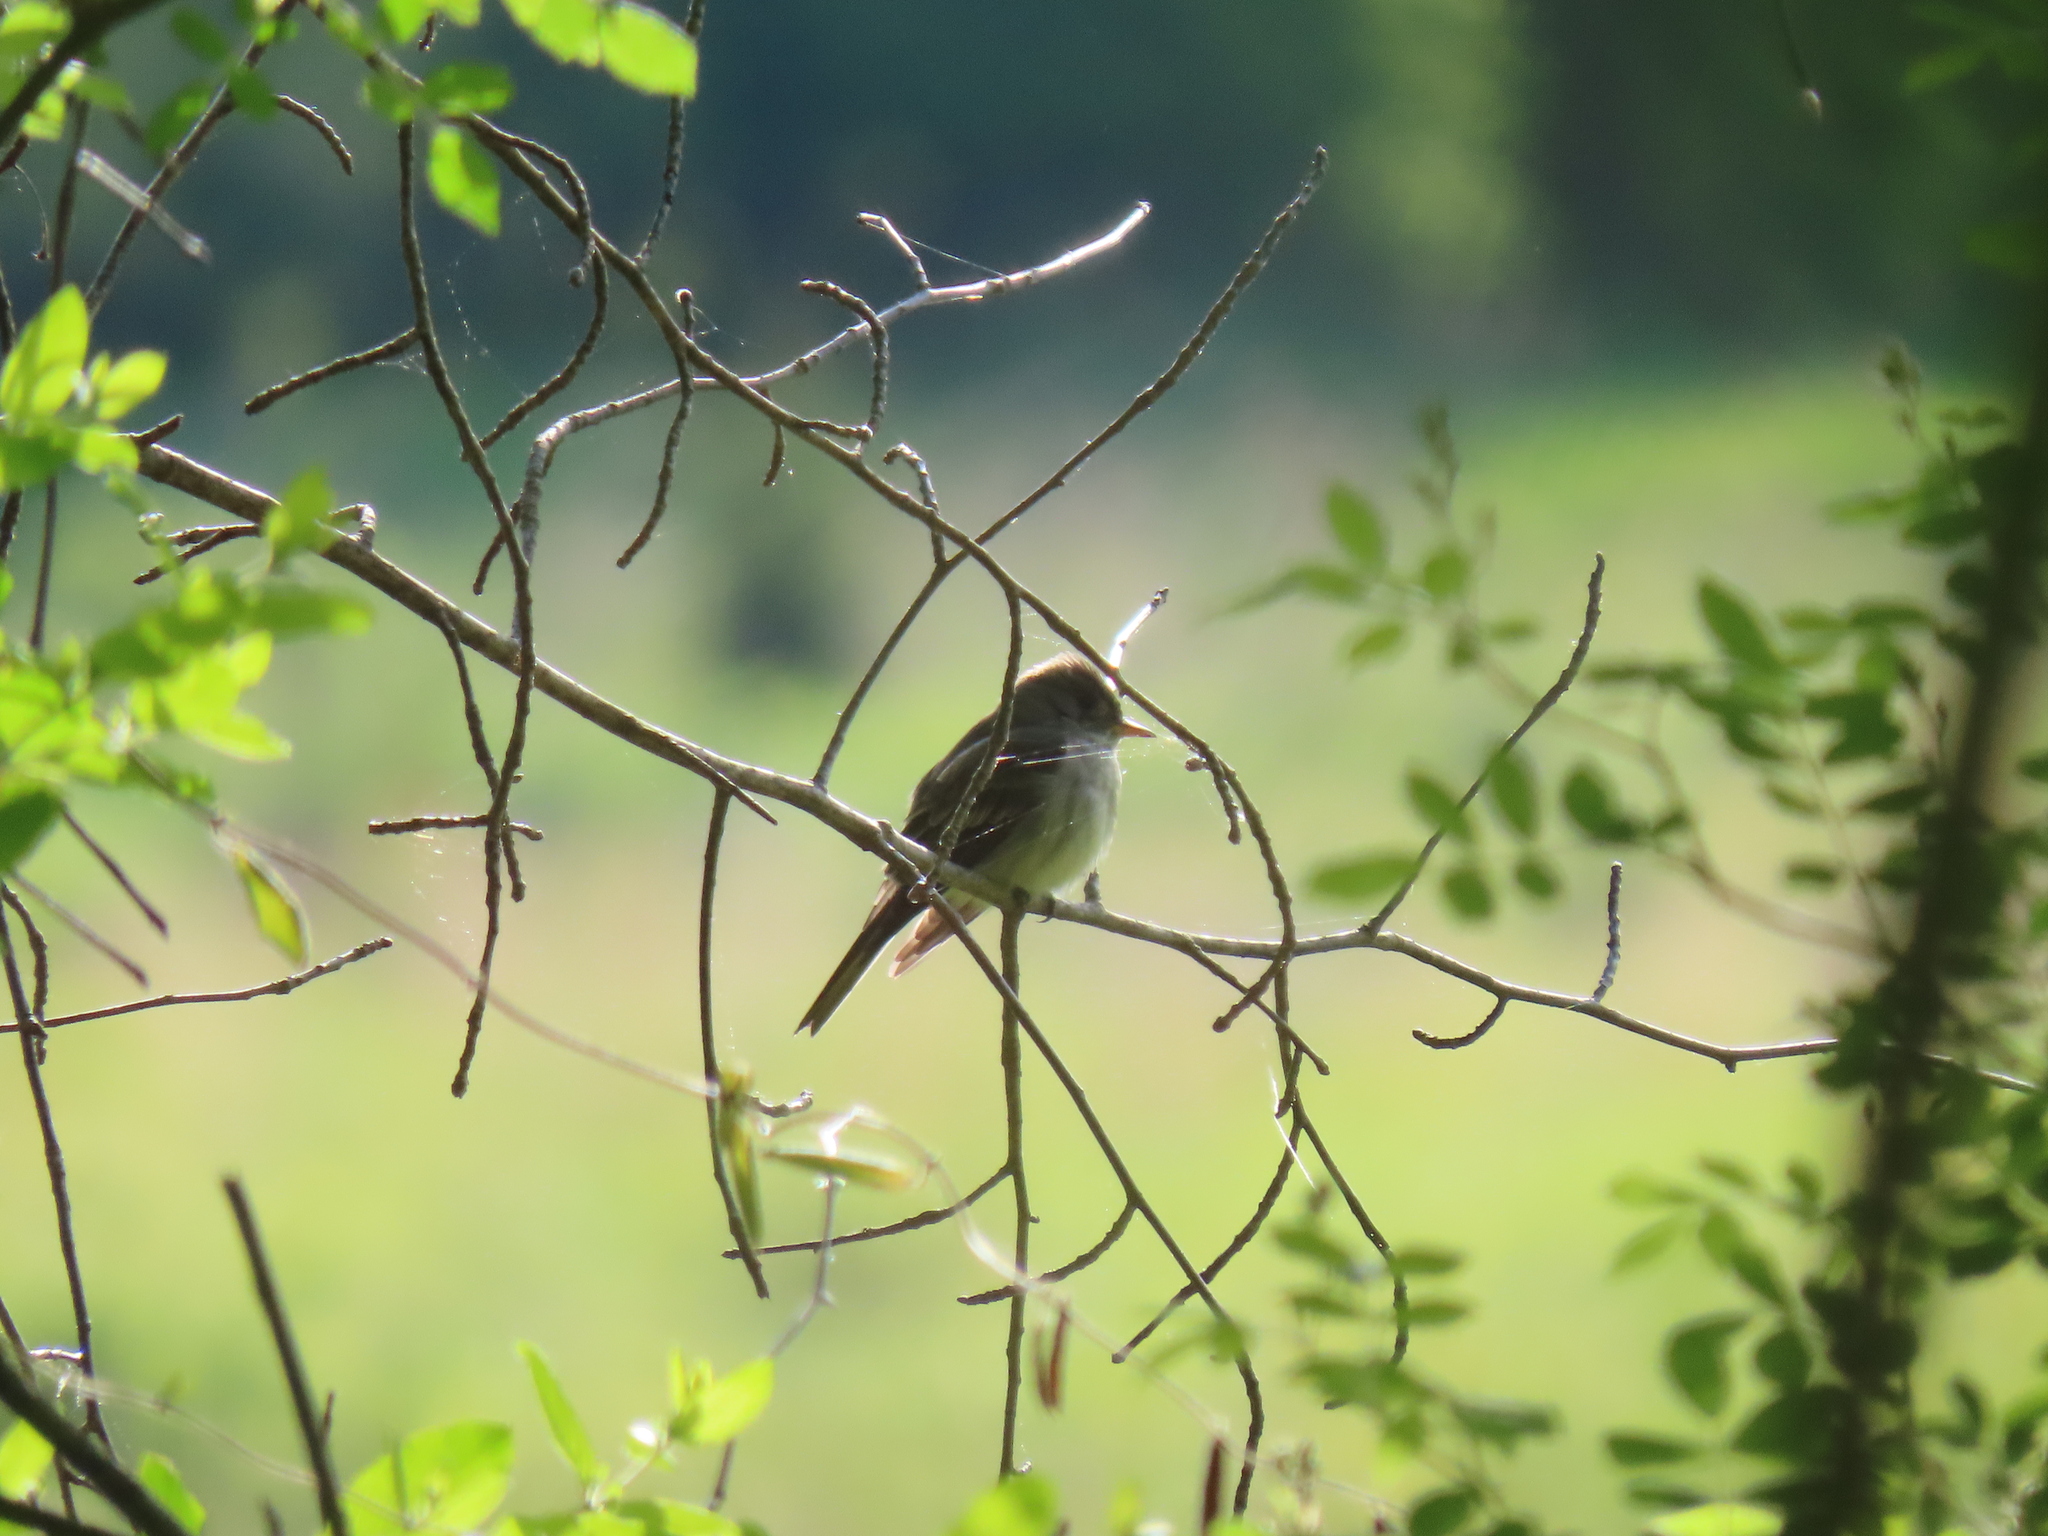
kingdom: Animalia
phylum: Chordata
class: Aves
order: Passeriformes
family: Tyrannidae
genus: Contopus
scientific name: Contopus virens
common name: Eastern wood-pewee
